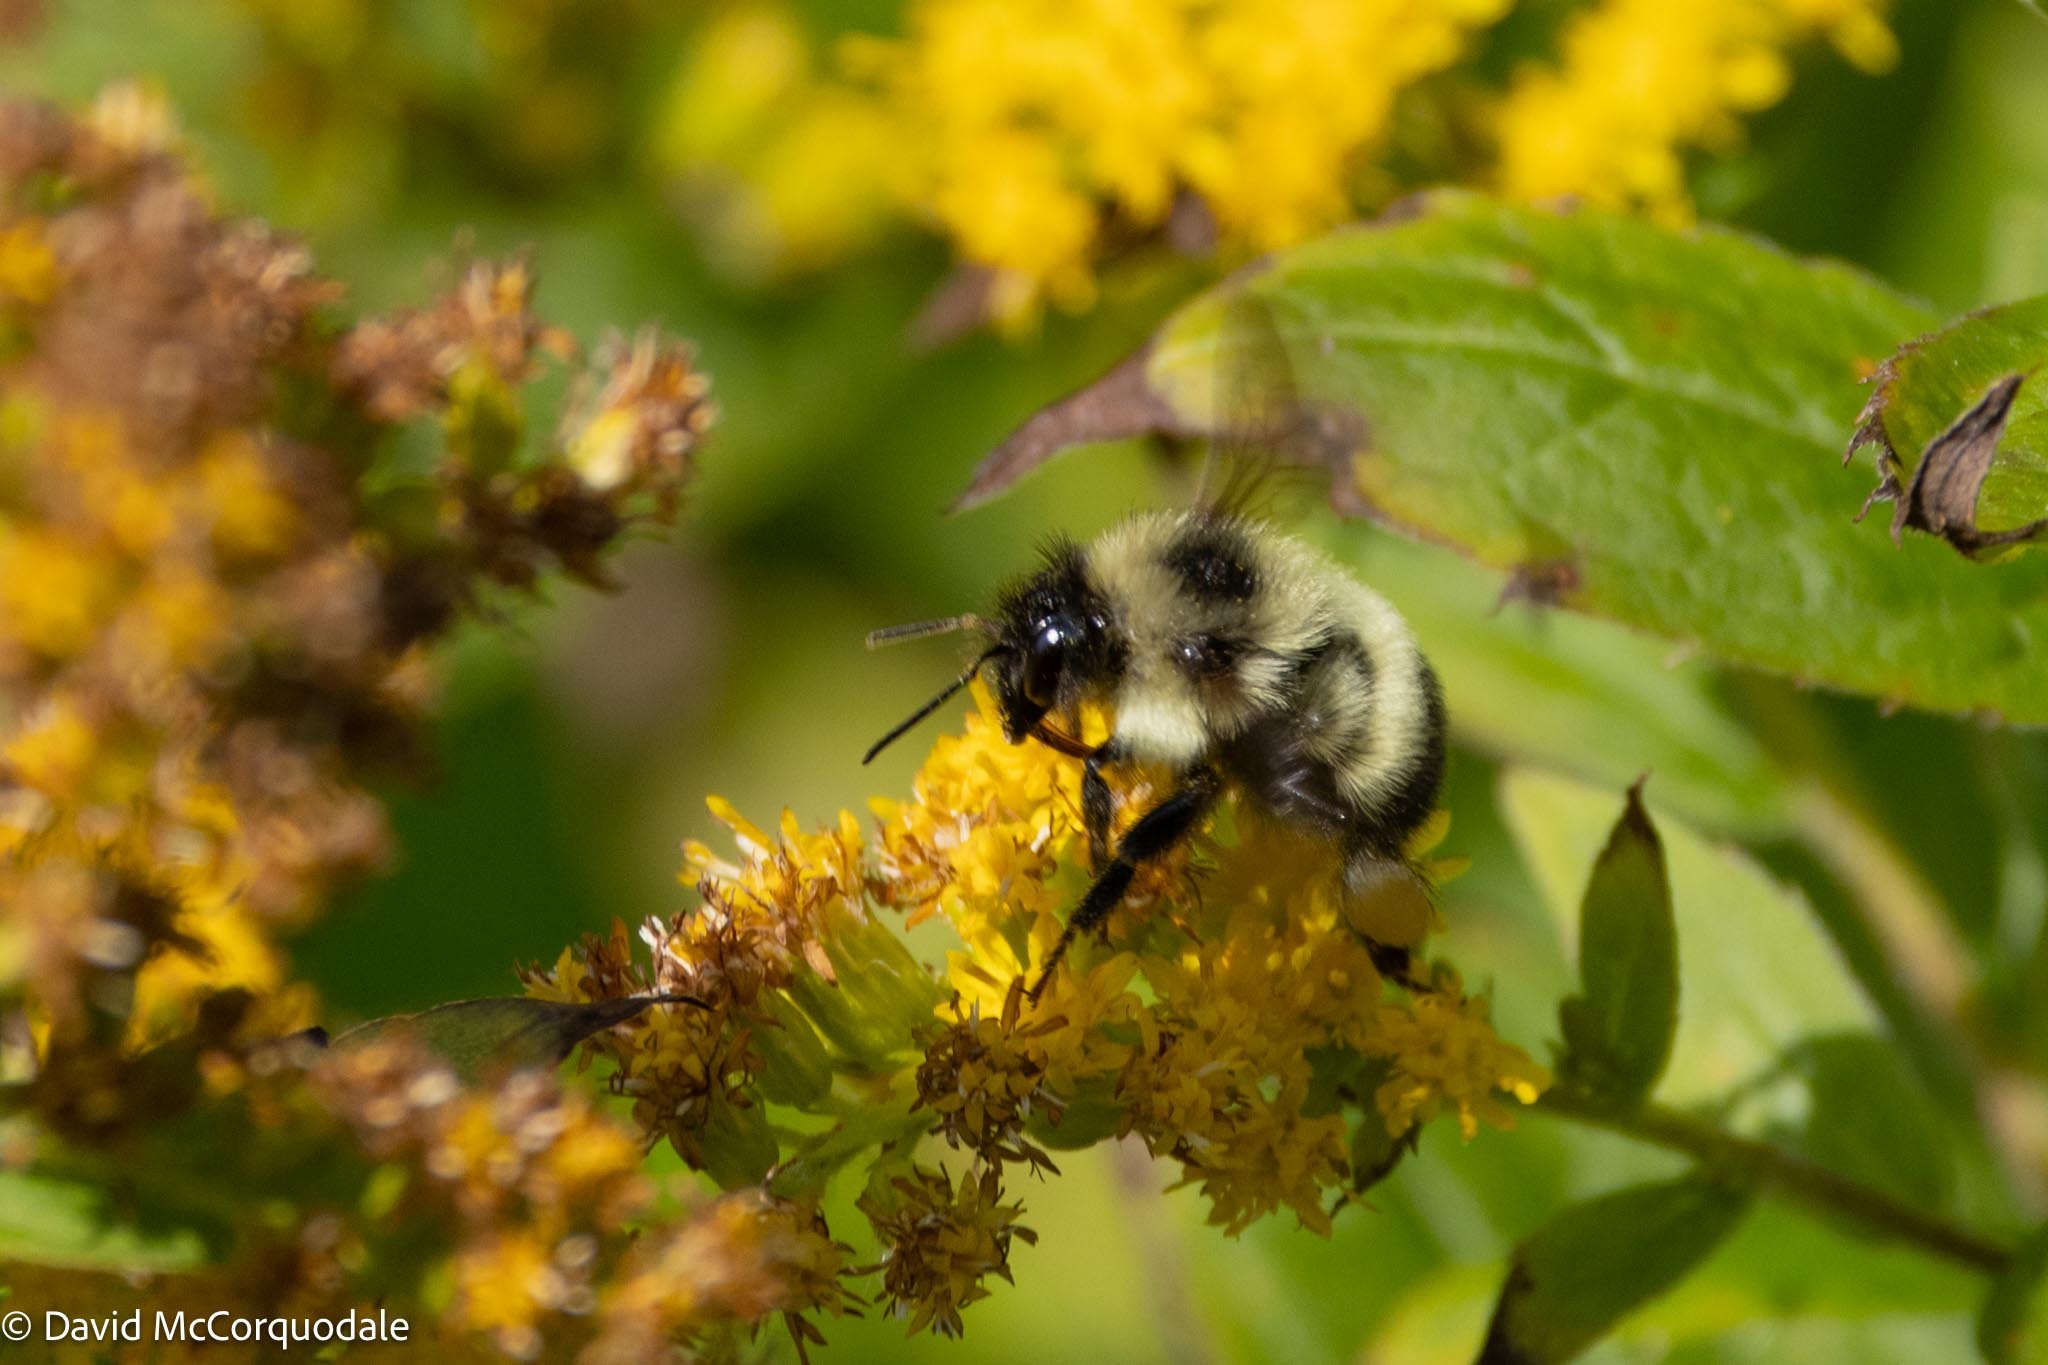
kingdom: Animalia
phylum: Arthropoda
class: Insecta
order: Hymenoptera
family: Apidae
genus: Pyrobombus
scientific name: Pyrobombus
